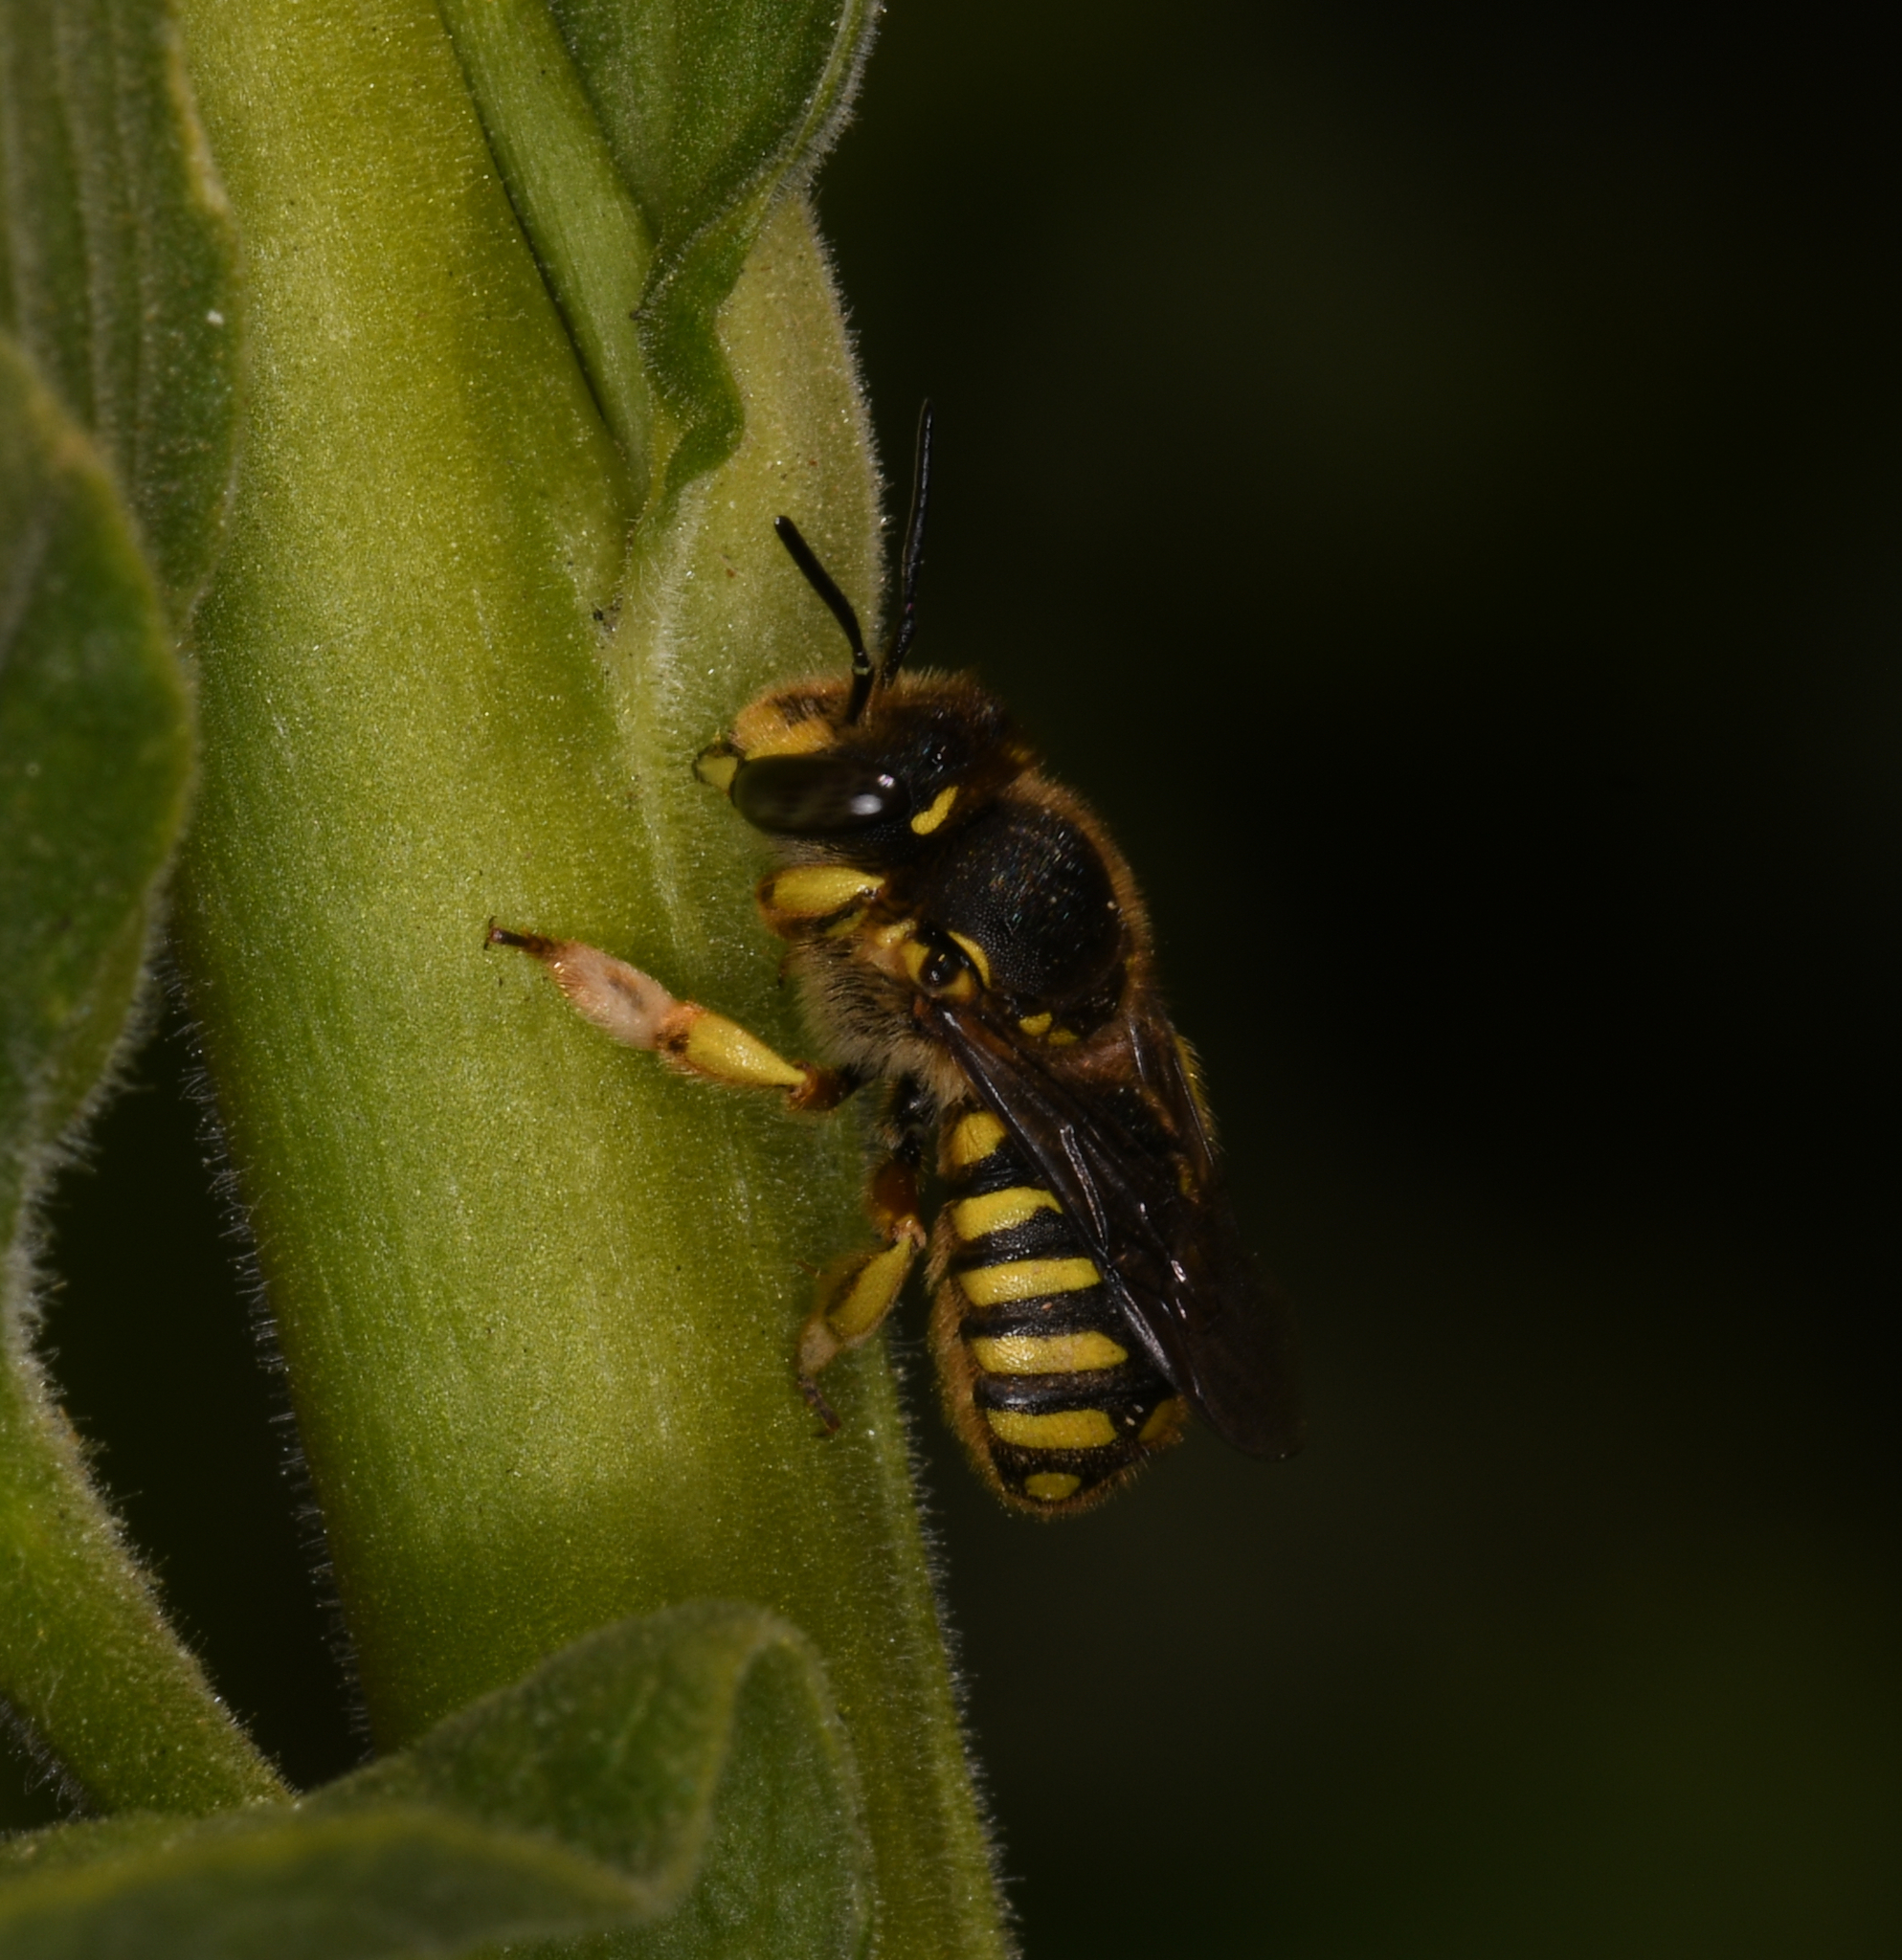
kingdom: Animalia
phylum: Arthropoda
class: Insecta
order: Hymenoptera
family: Megachilidae
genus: Anthidium
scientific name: Anthidium manicatum
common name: Wool carder bee
